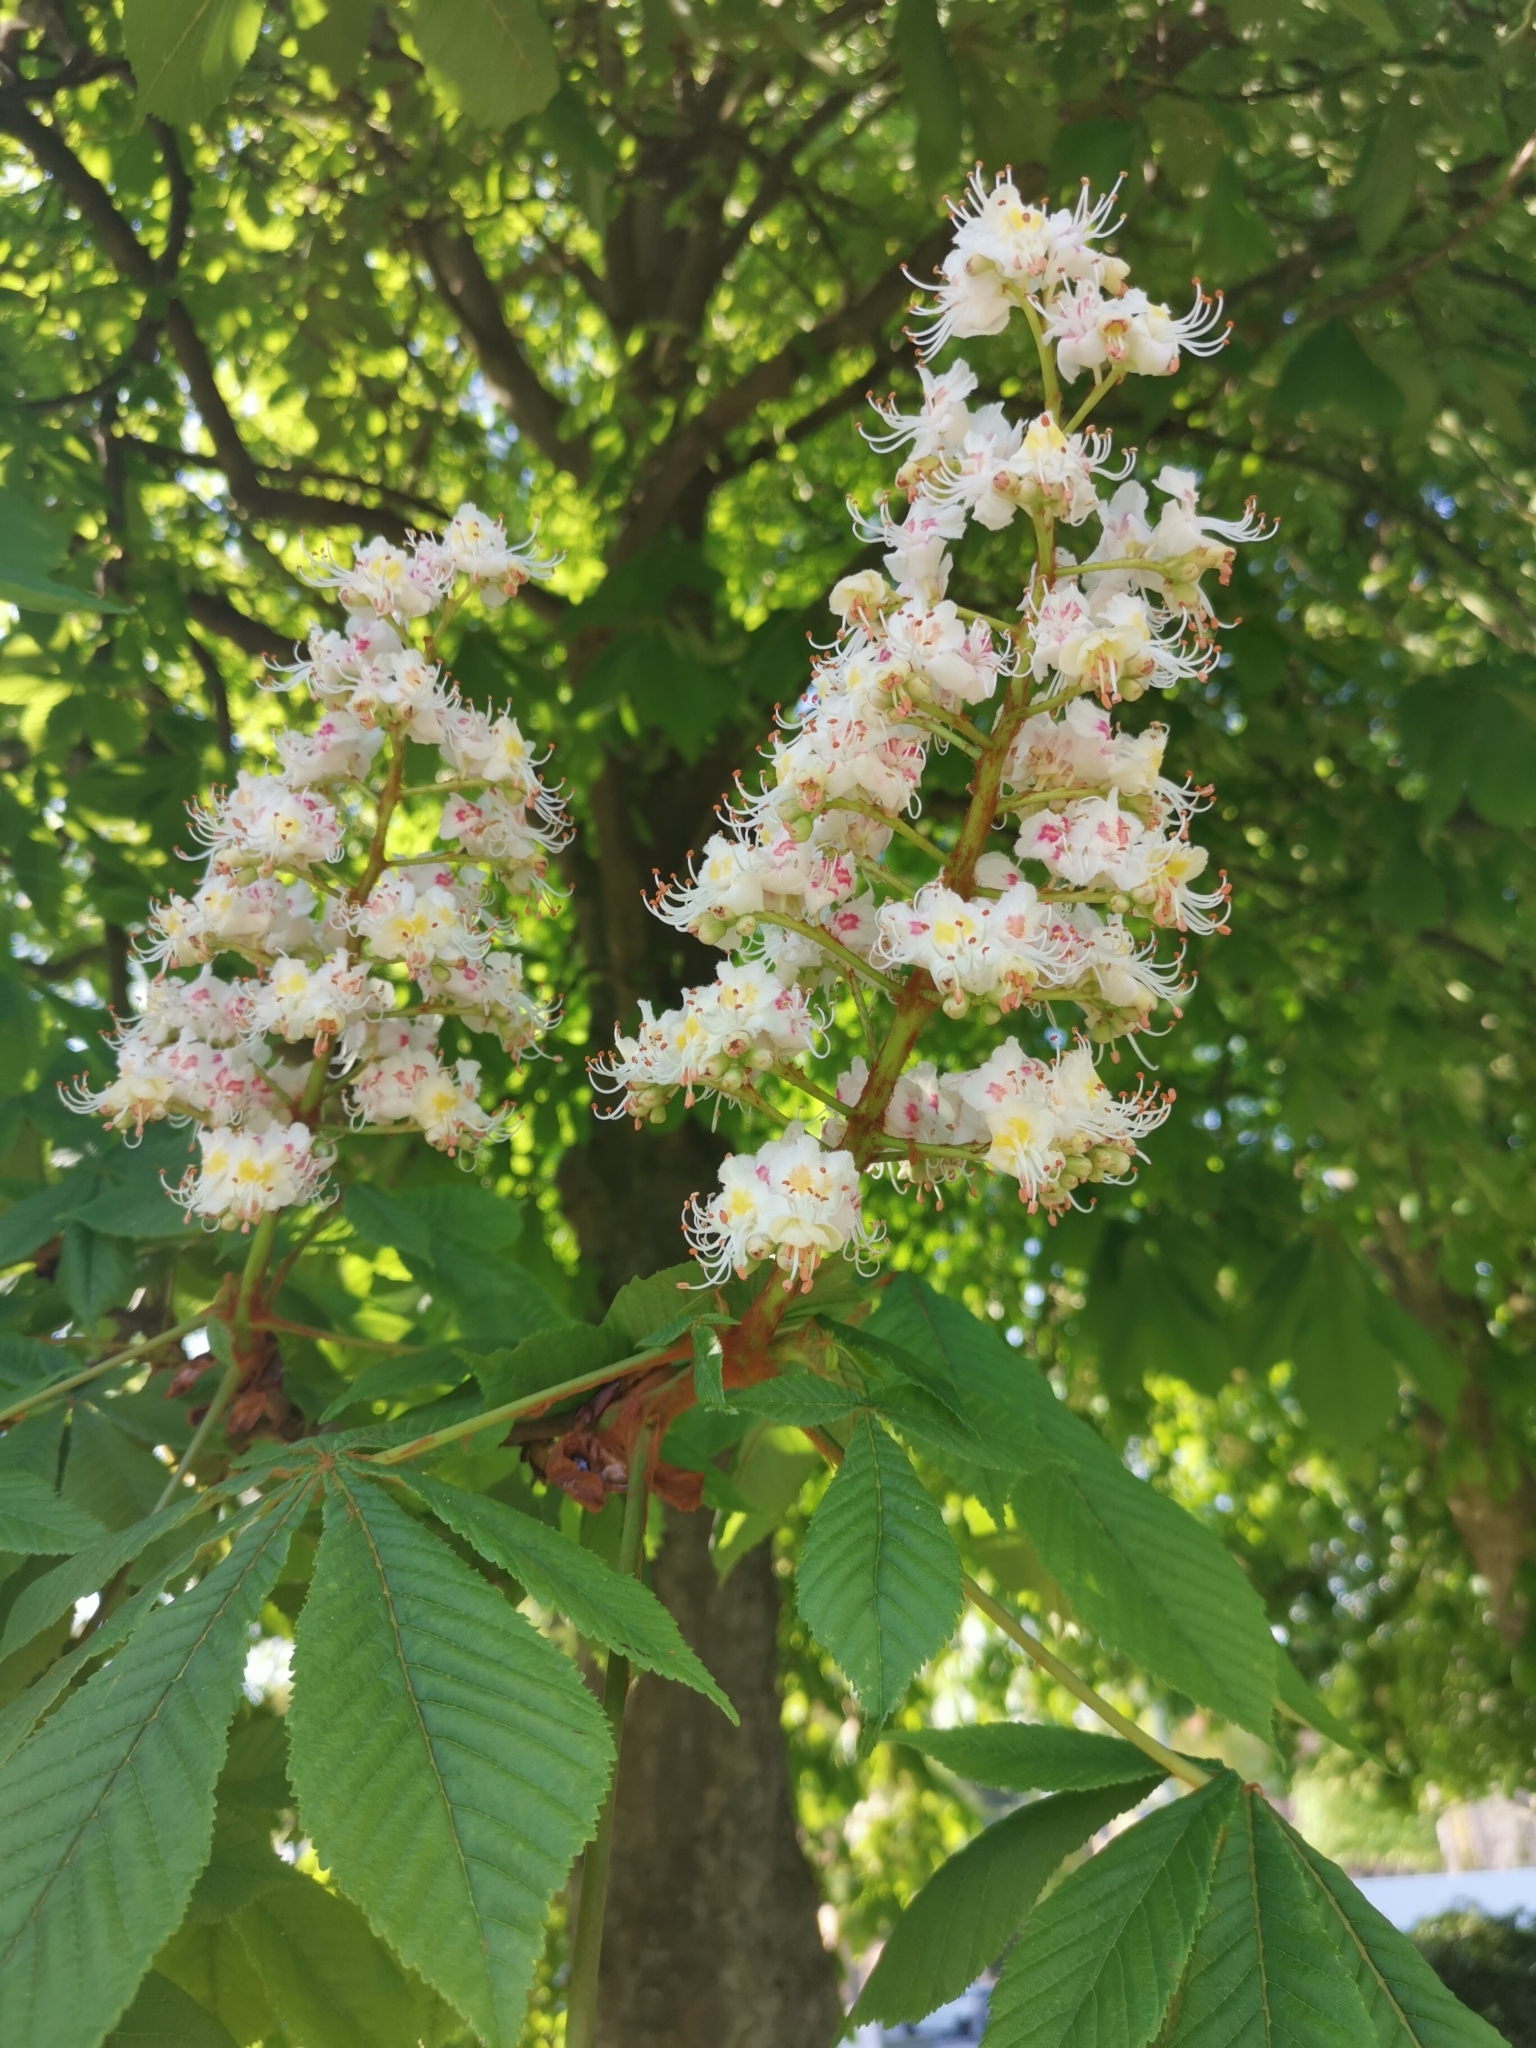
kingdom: Plantae
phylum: Tracheophyta
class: Magnoliopsida
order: Sapindales
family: Sapindaceae
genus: Aesculus
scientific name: Aesculus hippocastanum
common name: Horse-chestnut
